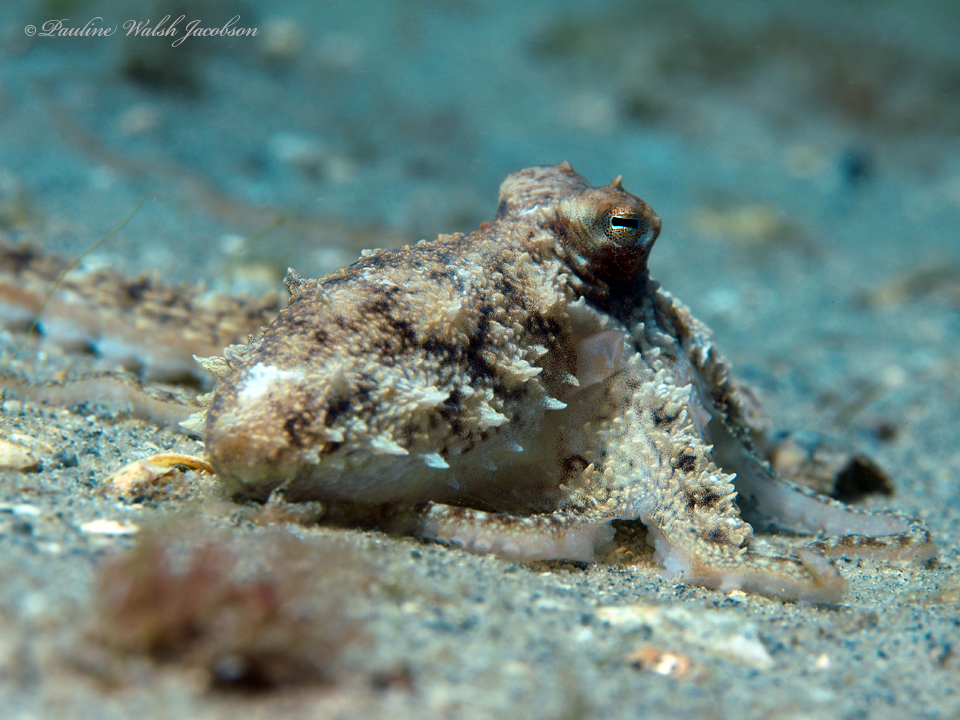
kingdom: Animalia
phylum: Mollusca
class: Cephalopoda
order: Octopoda
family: Octopodidae
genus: Macrotritopus
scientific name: Macrotritopus defilippi
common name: Lilliput longarm octopus
